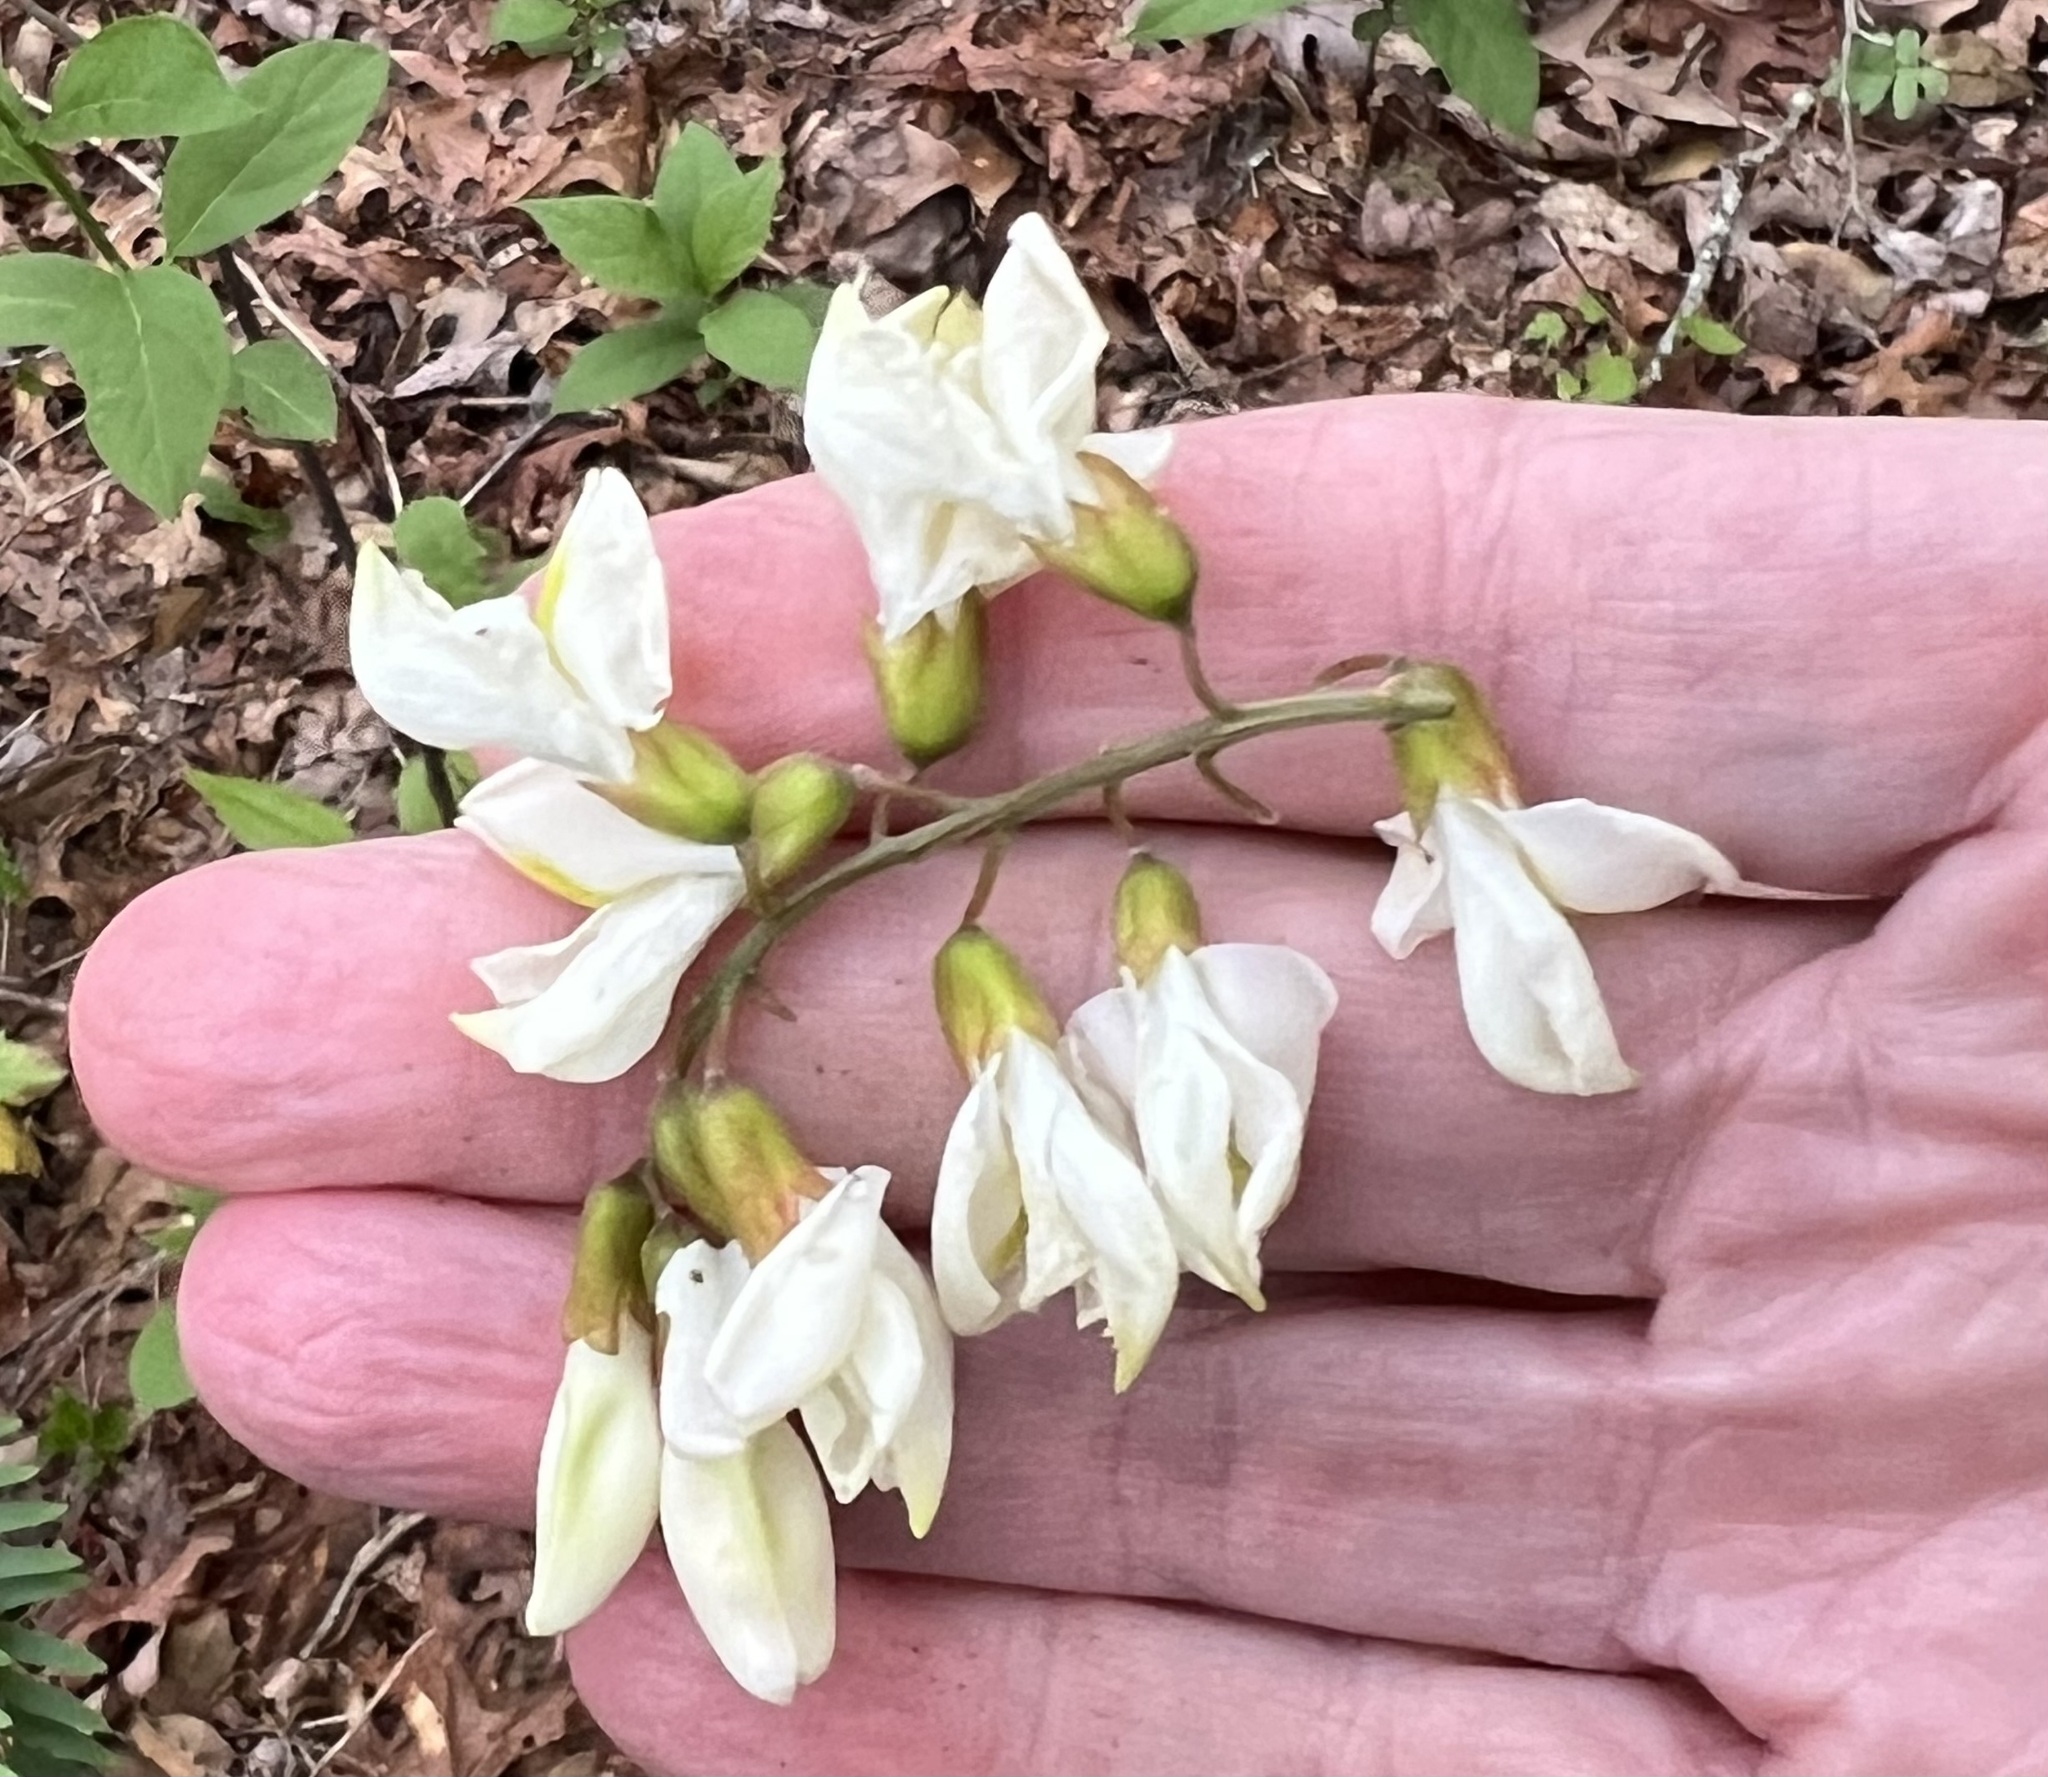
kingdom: Plantae
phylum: Tracheophyta
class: Magnoliopsida
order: Fabales
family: Fabaceae
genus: Robinia
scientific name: Robinia pseudoacacia
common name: Black locust
